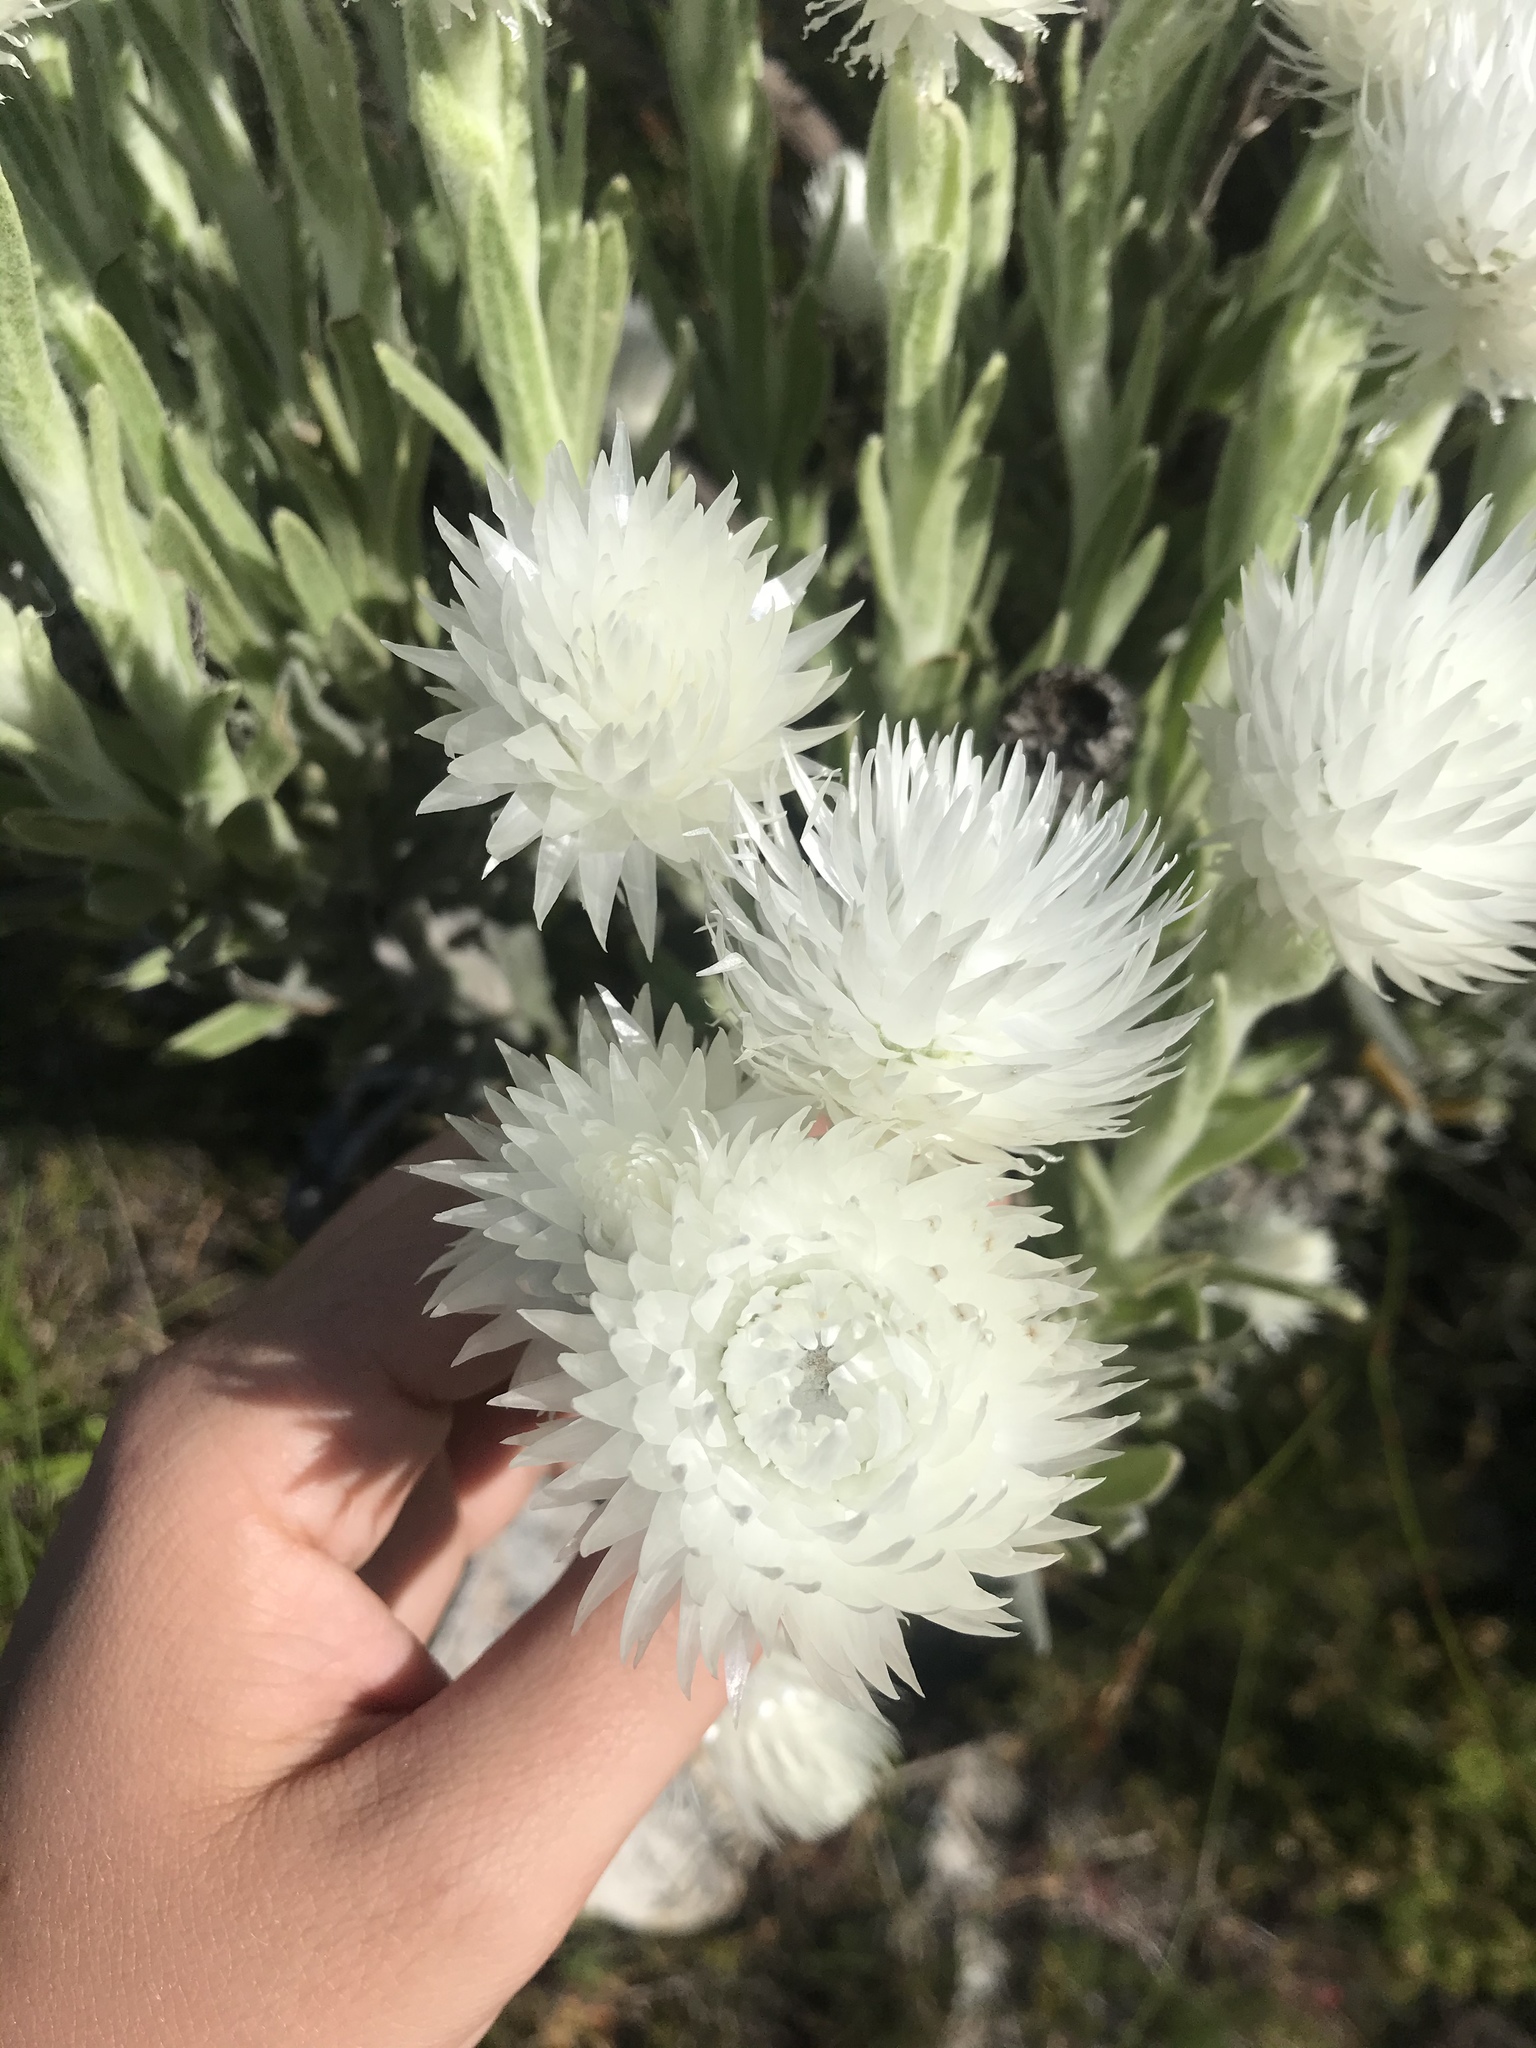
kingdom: Plantae
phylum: Tracheophyta
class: Magnoliopsida
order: Asterales
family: Asteraceae
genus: Syncarpha
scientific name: Syncarpha vestita
